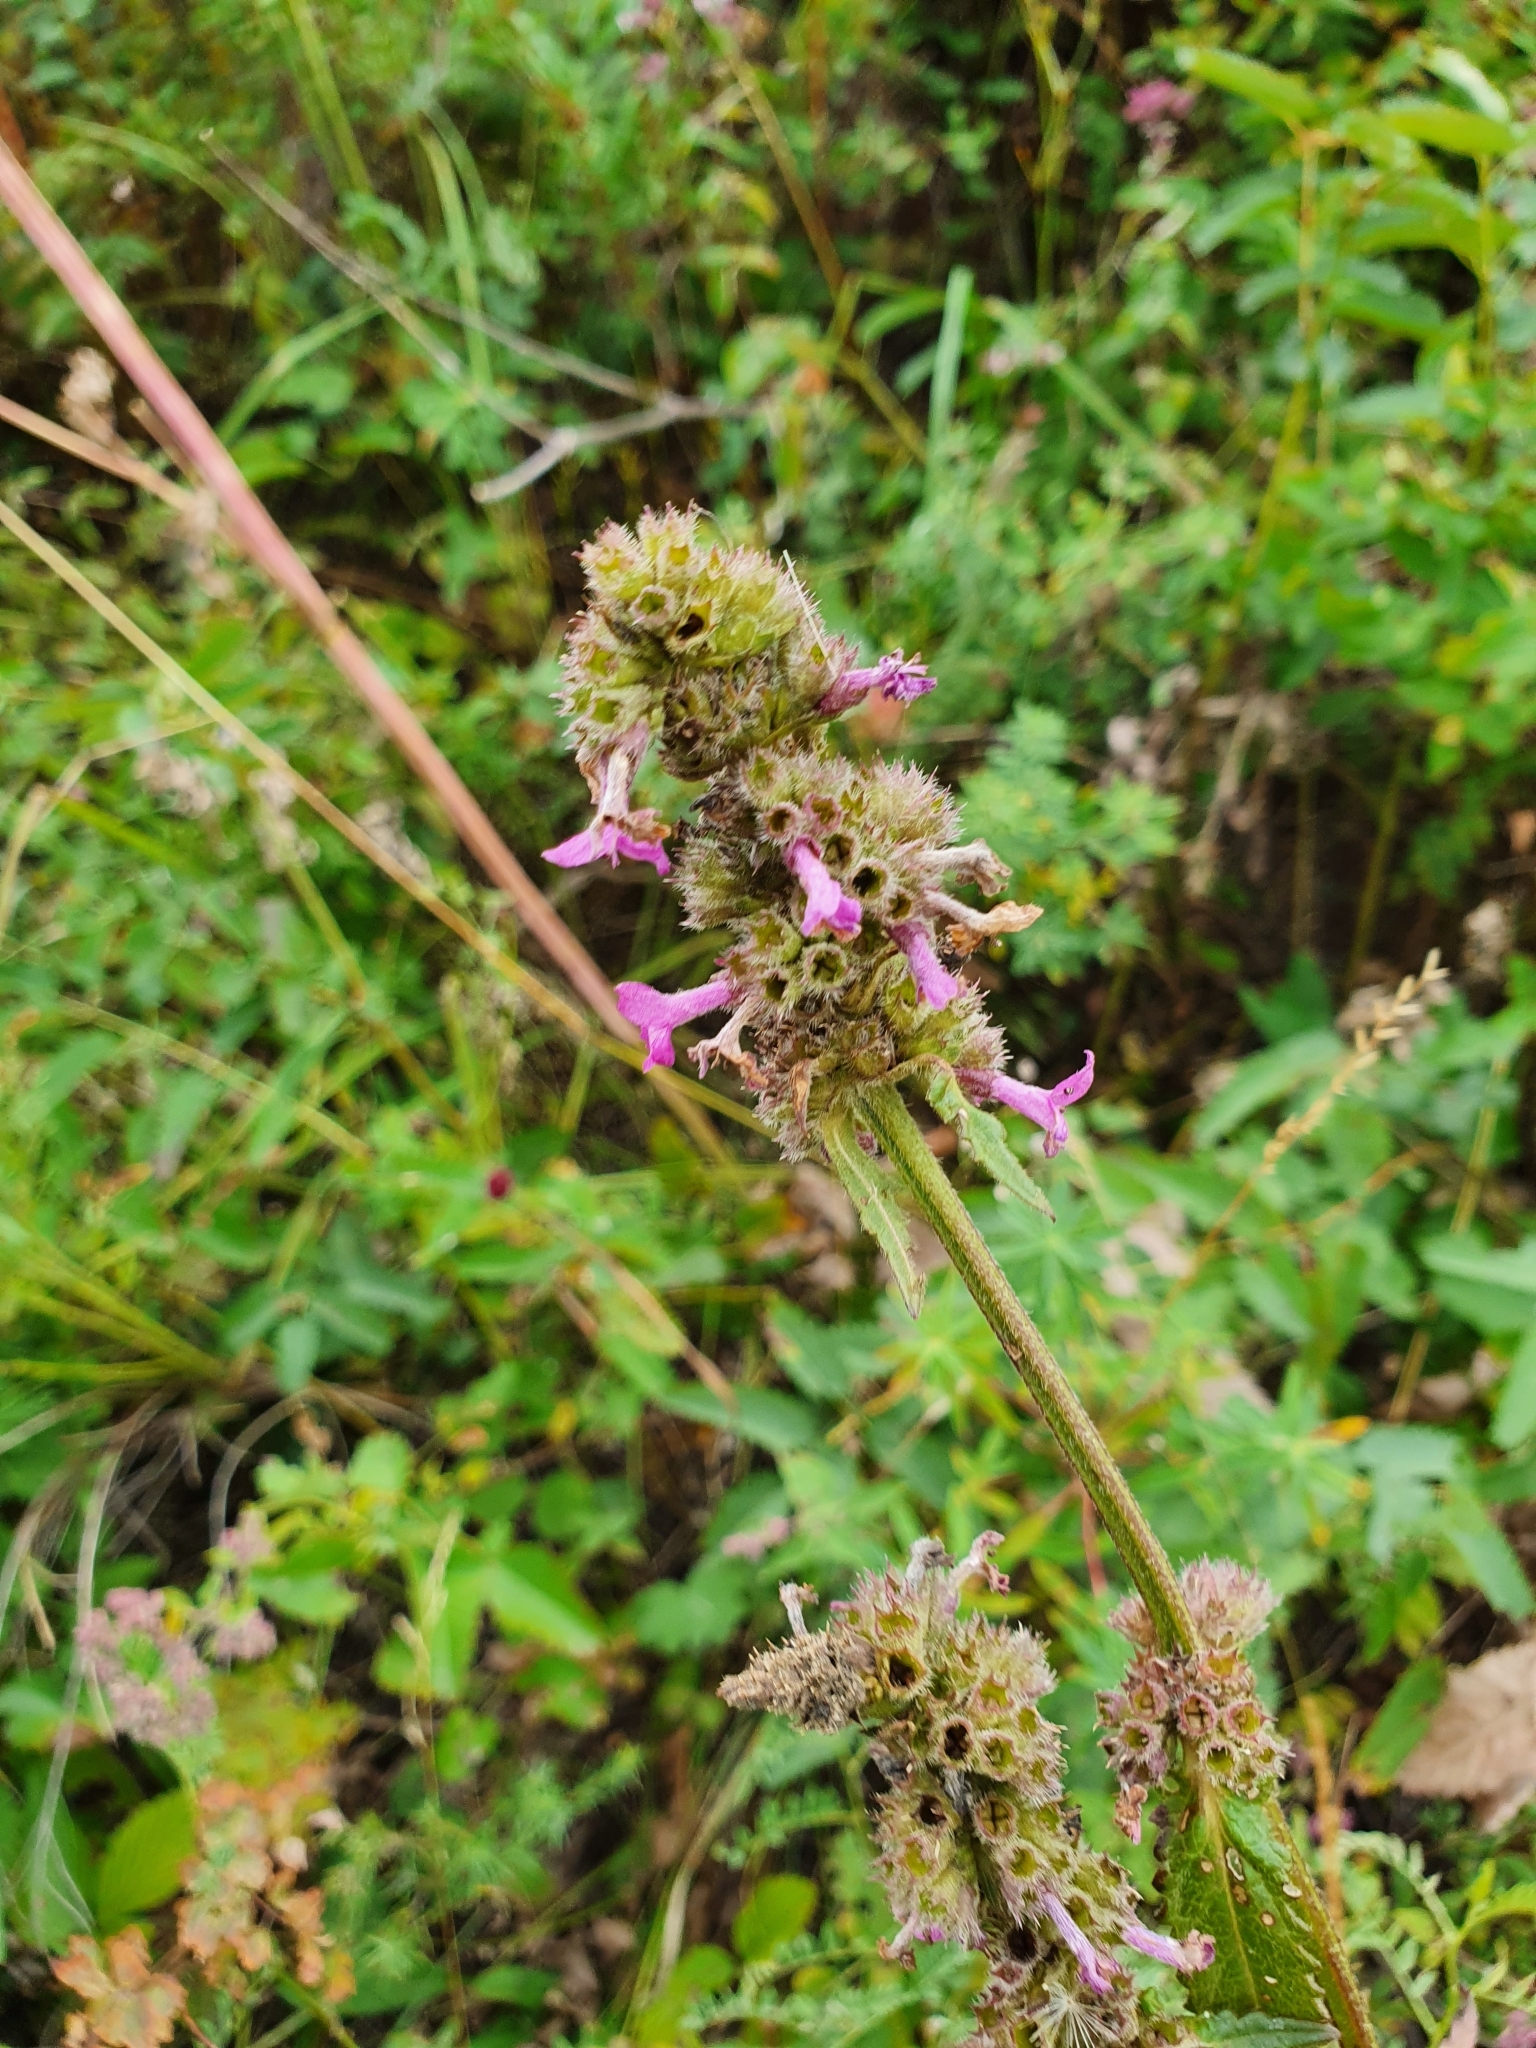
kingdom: Plantae
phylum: Tracheophyta
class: Magnoliopsida
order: Lamiales
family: Lamiaceae
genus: Betonica
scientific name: Betonica officinalis
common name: Bishop's-wort
